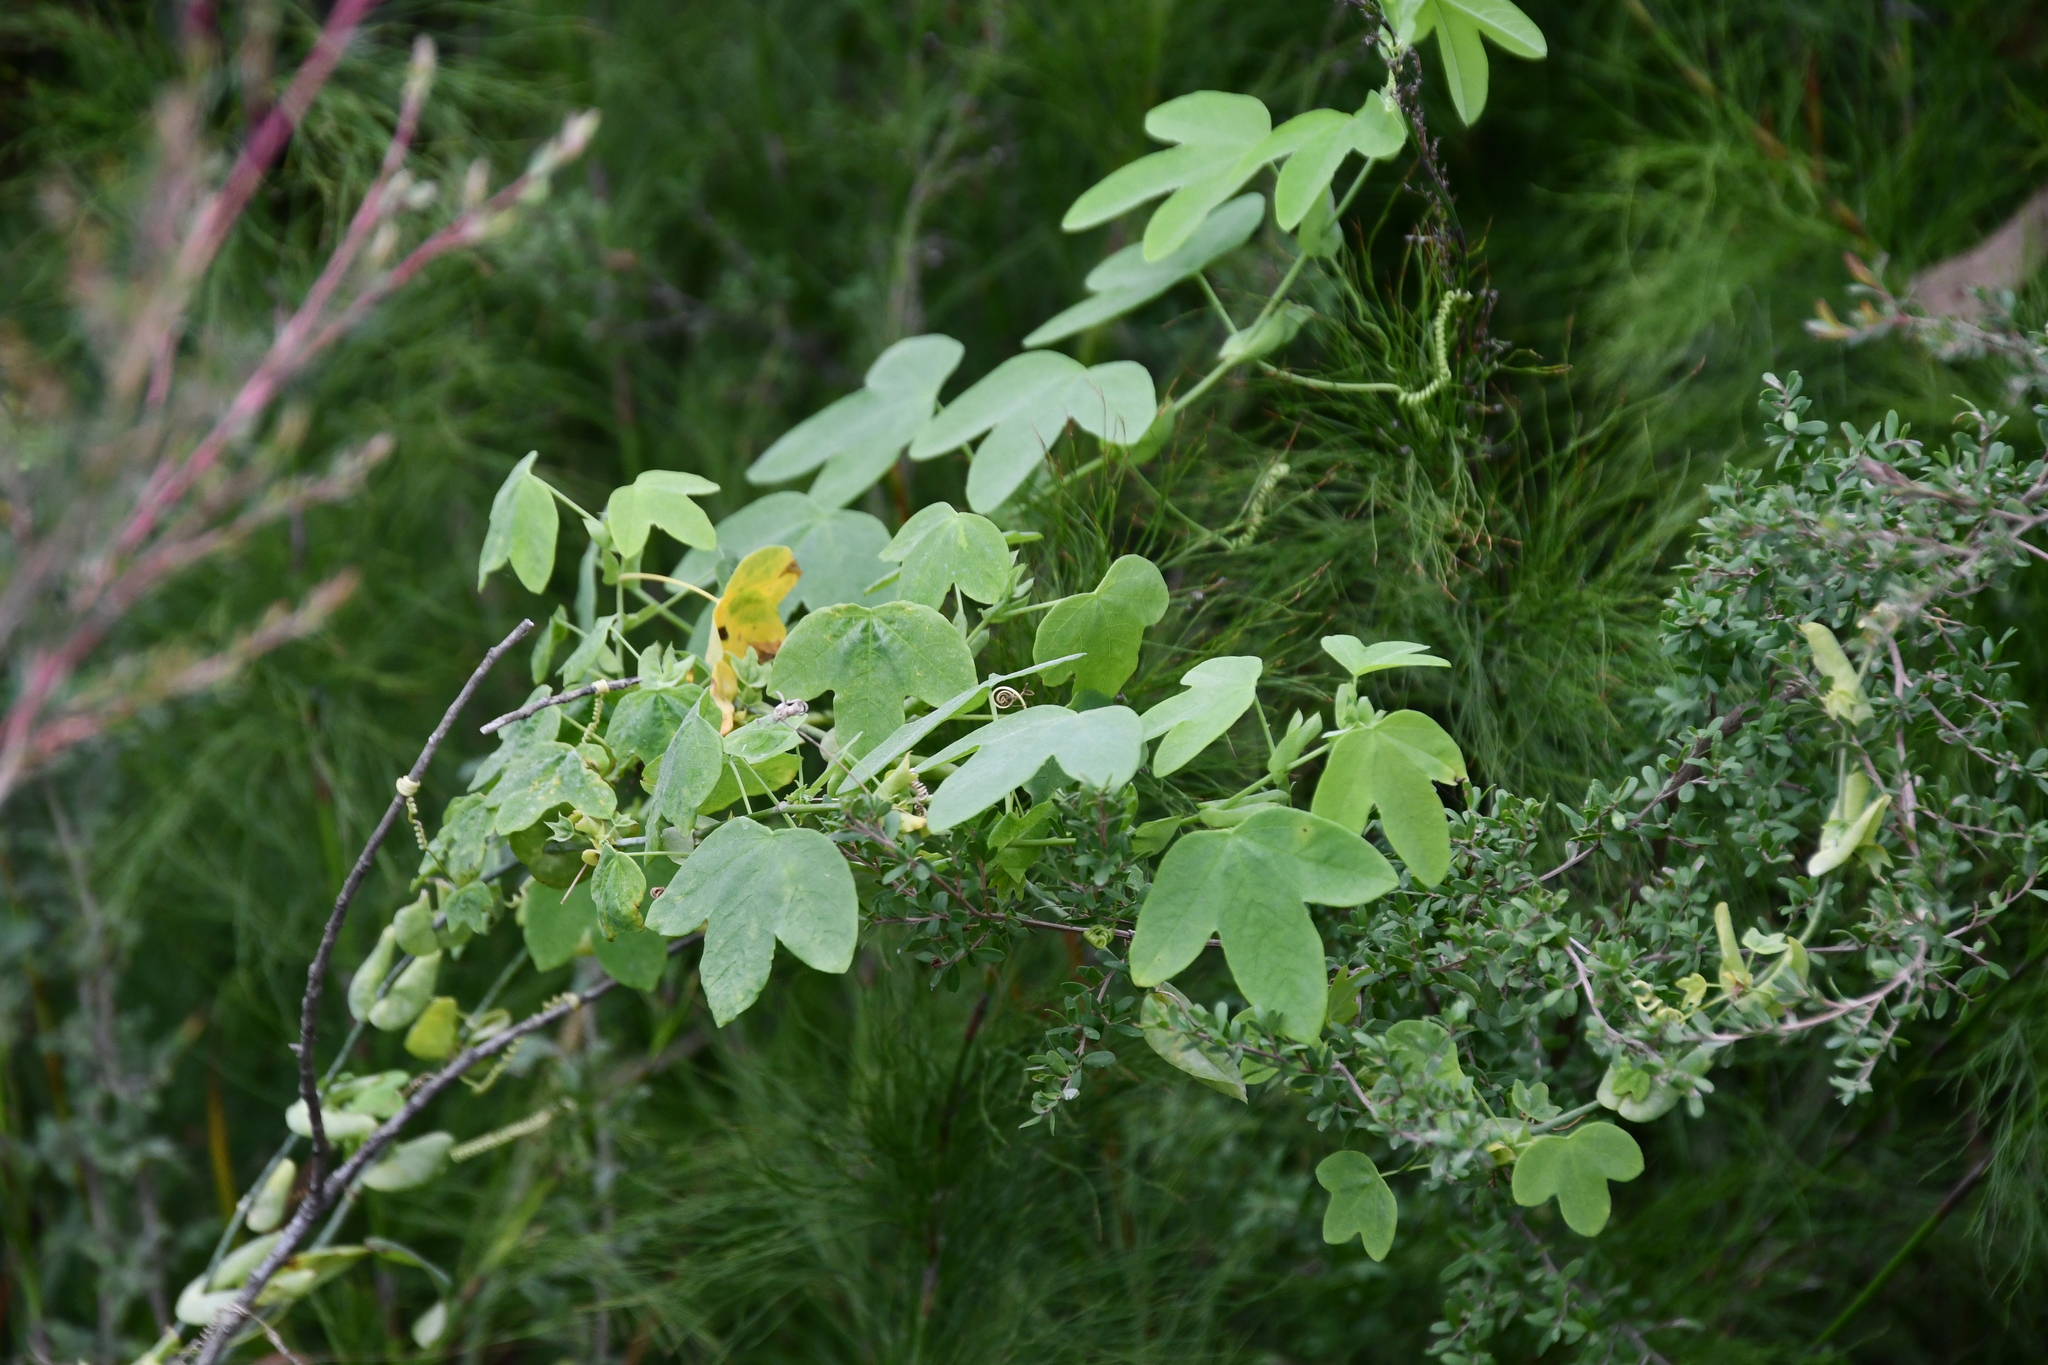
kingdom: Plantae
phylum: Tracheophyta
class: Magnoliopsida
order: Malpighiales
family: Passifloraceae
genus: Passiflora
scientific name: Passiflora subpeltata
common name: White passionflower
